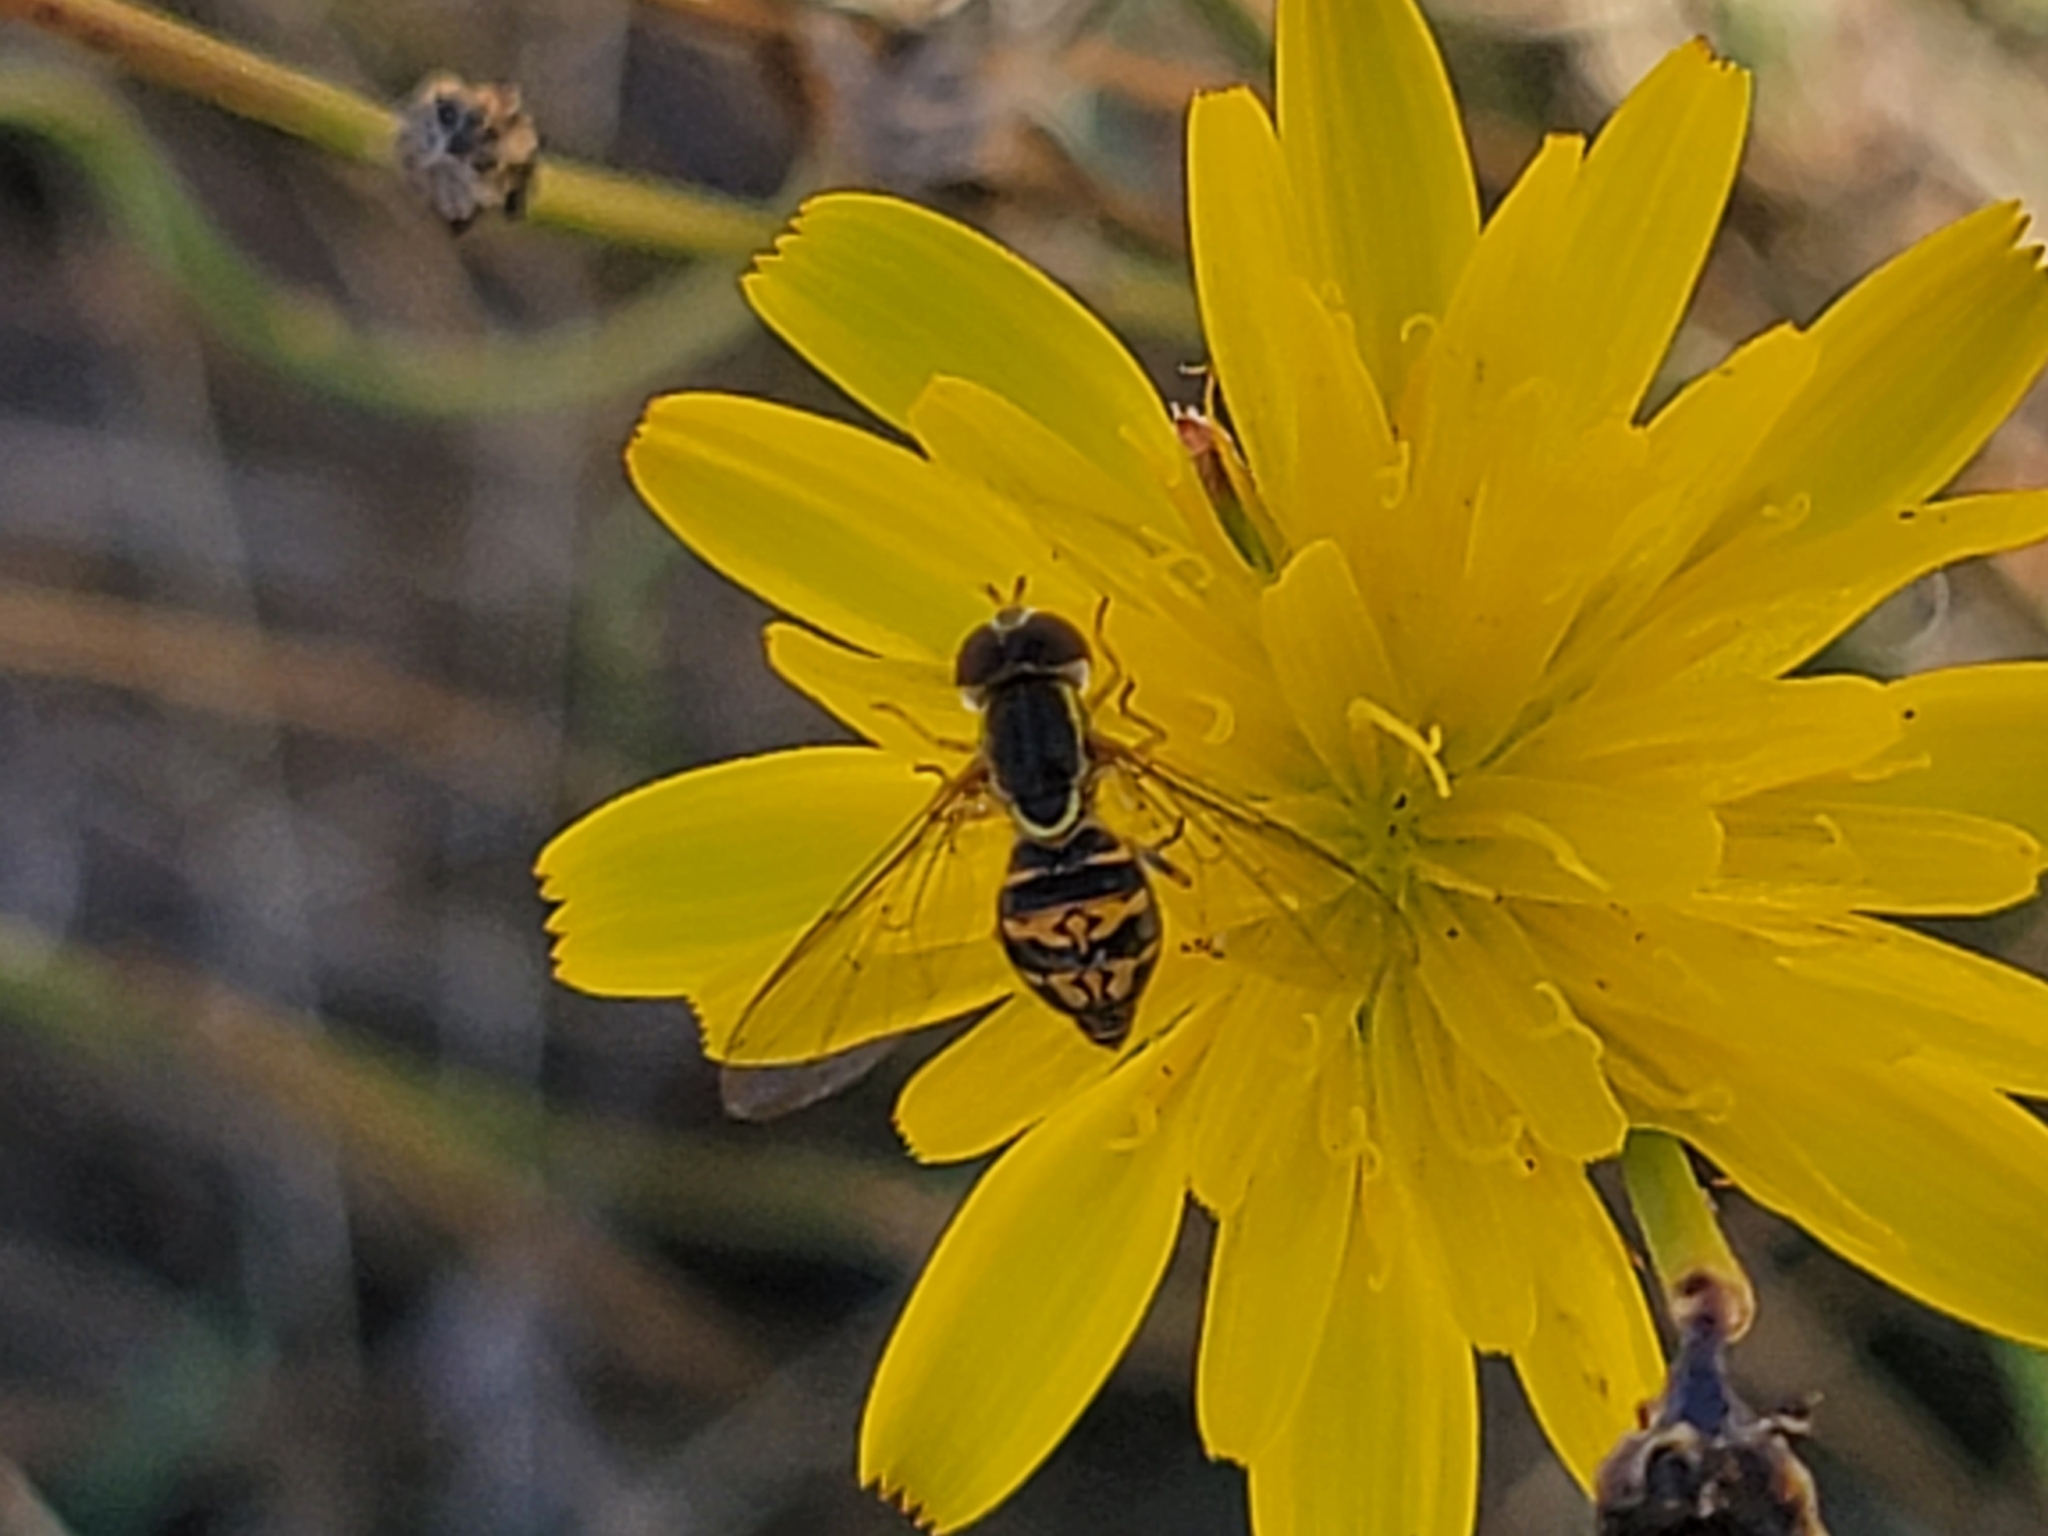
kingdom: Animalia
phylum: Arthropoda
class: Insecta
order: Diptera
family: Syrphidae
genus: Toxomerus
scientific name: Toxomerus occidentalis
